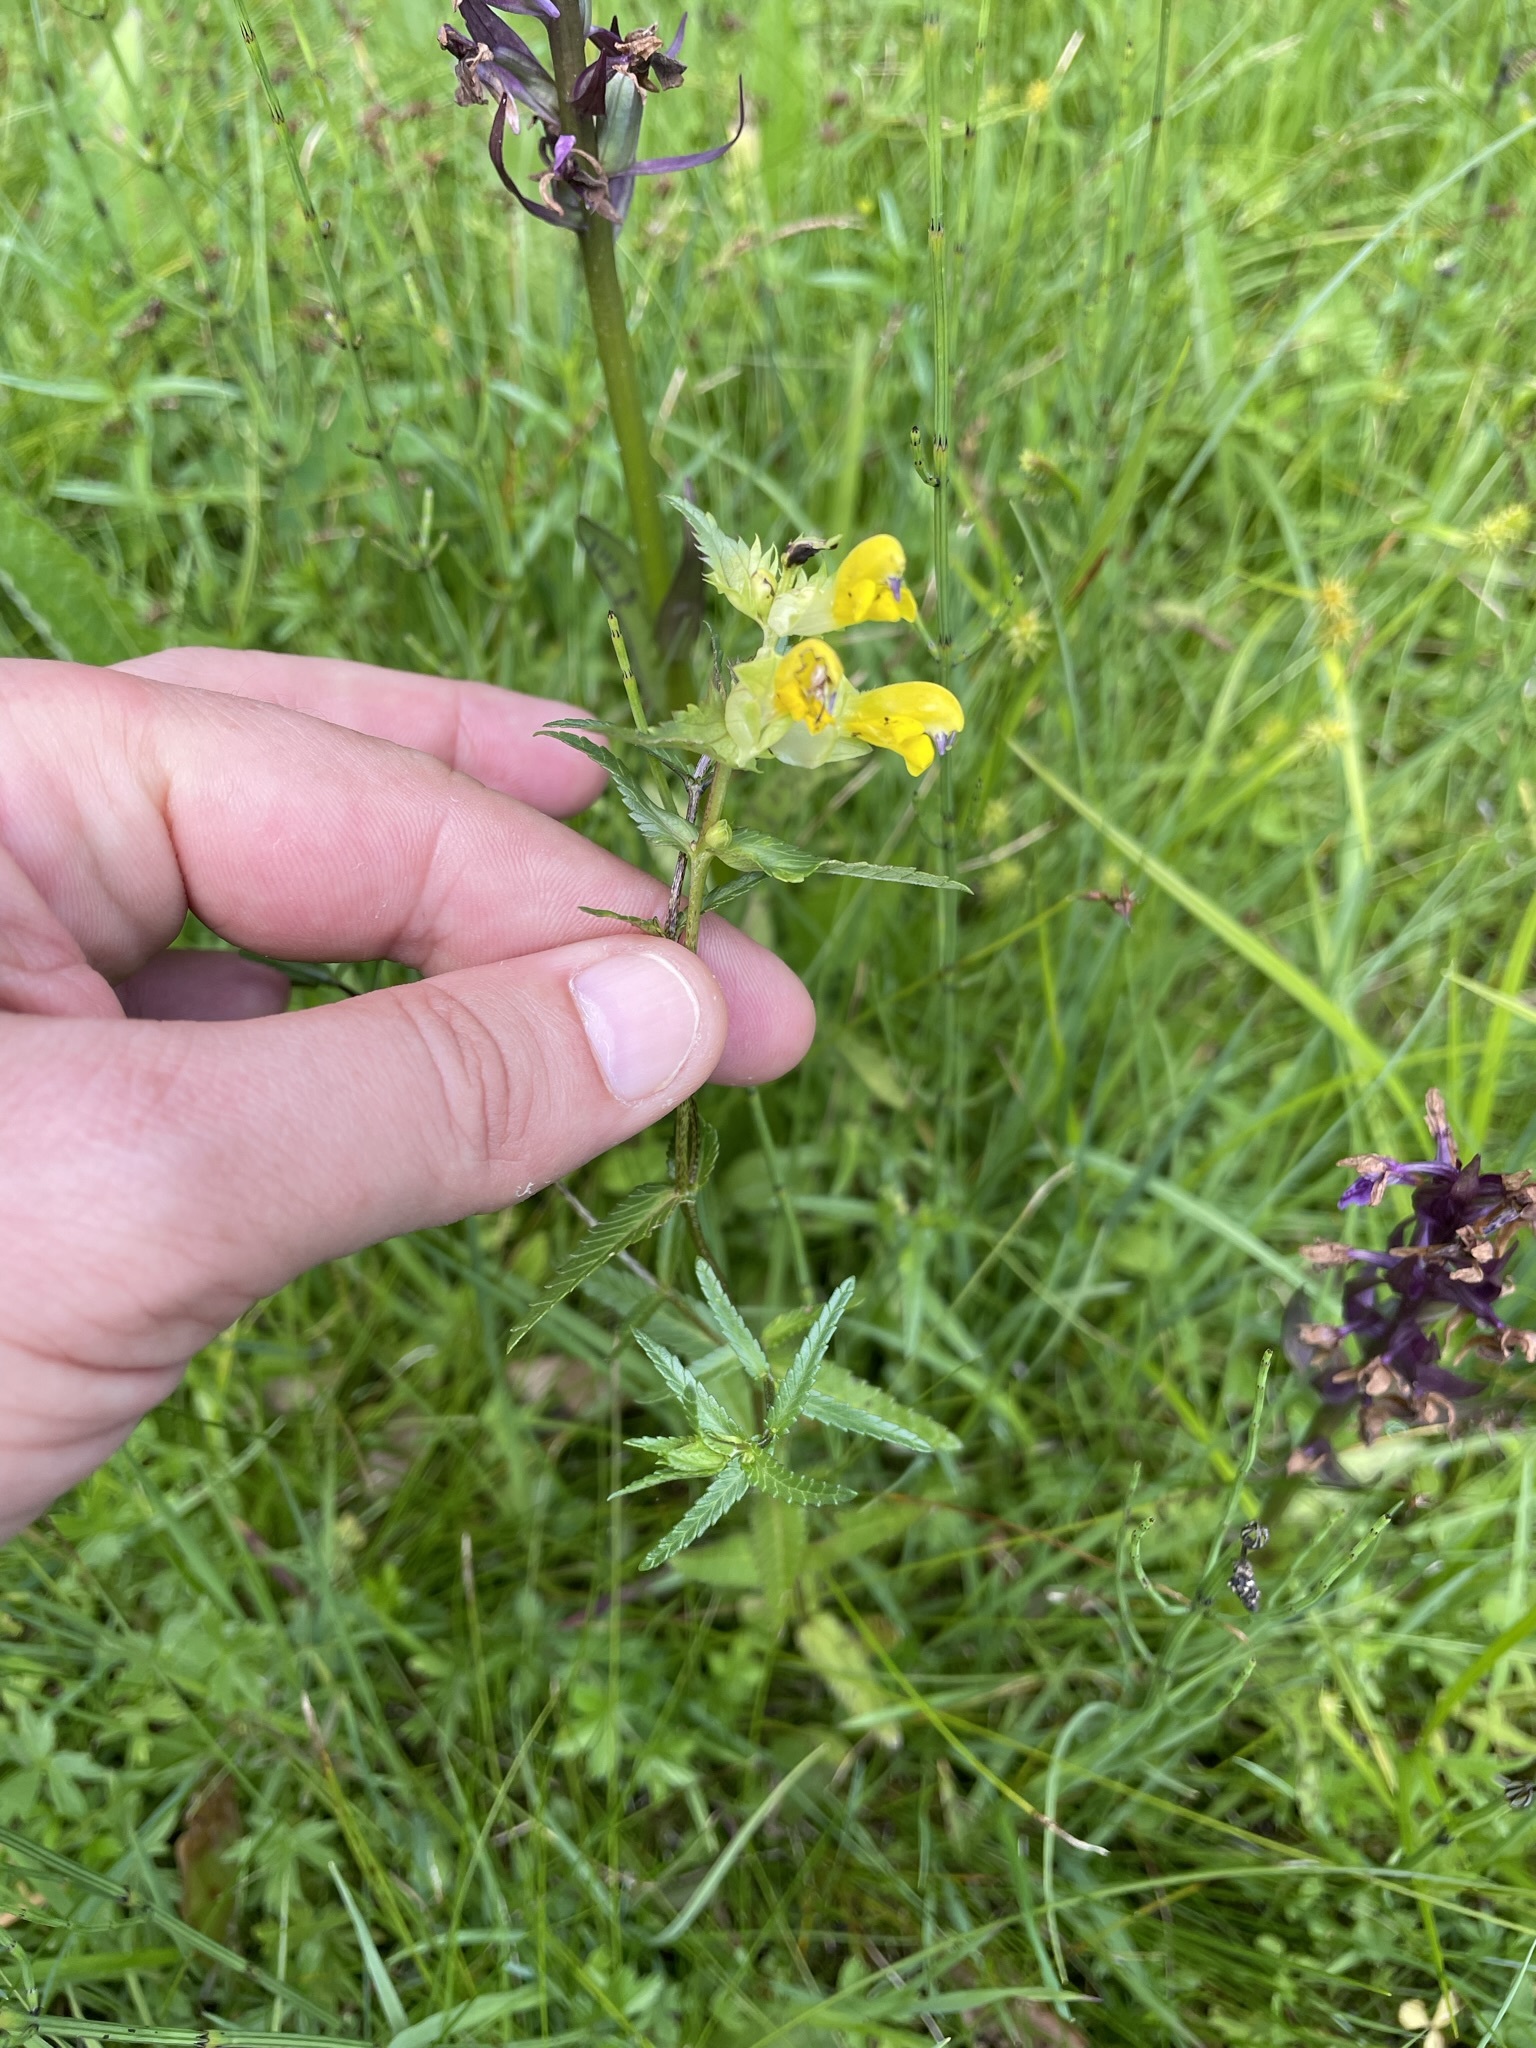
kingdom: Plantae
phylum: Tracheophyta
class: Magnoliopsida
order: Lamiales
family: Orobanchaceae
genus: Rhinanthus
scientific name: Rhinanthus minor
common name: Yellow-rattle
